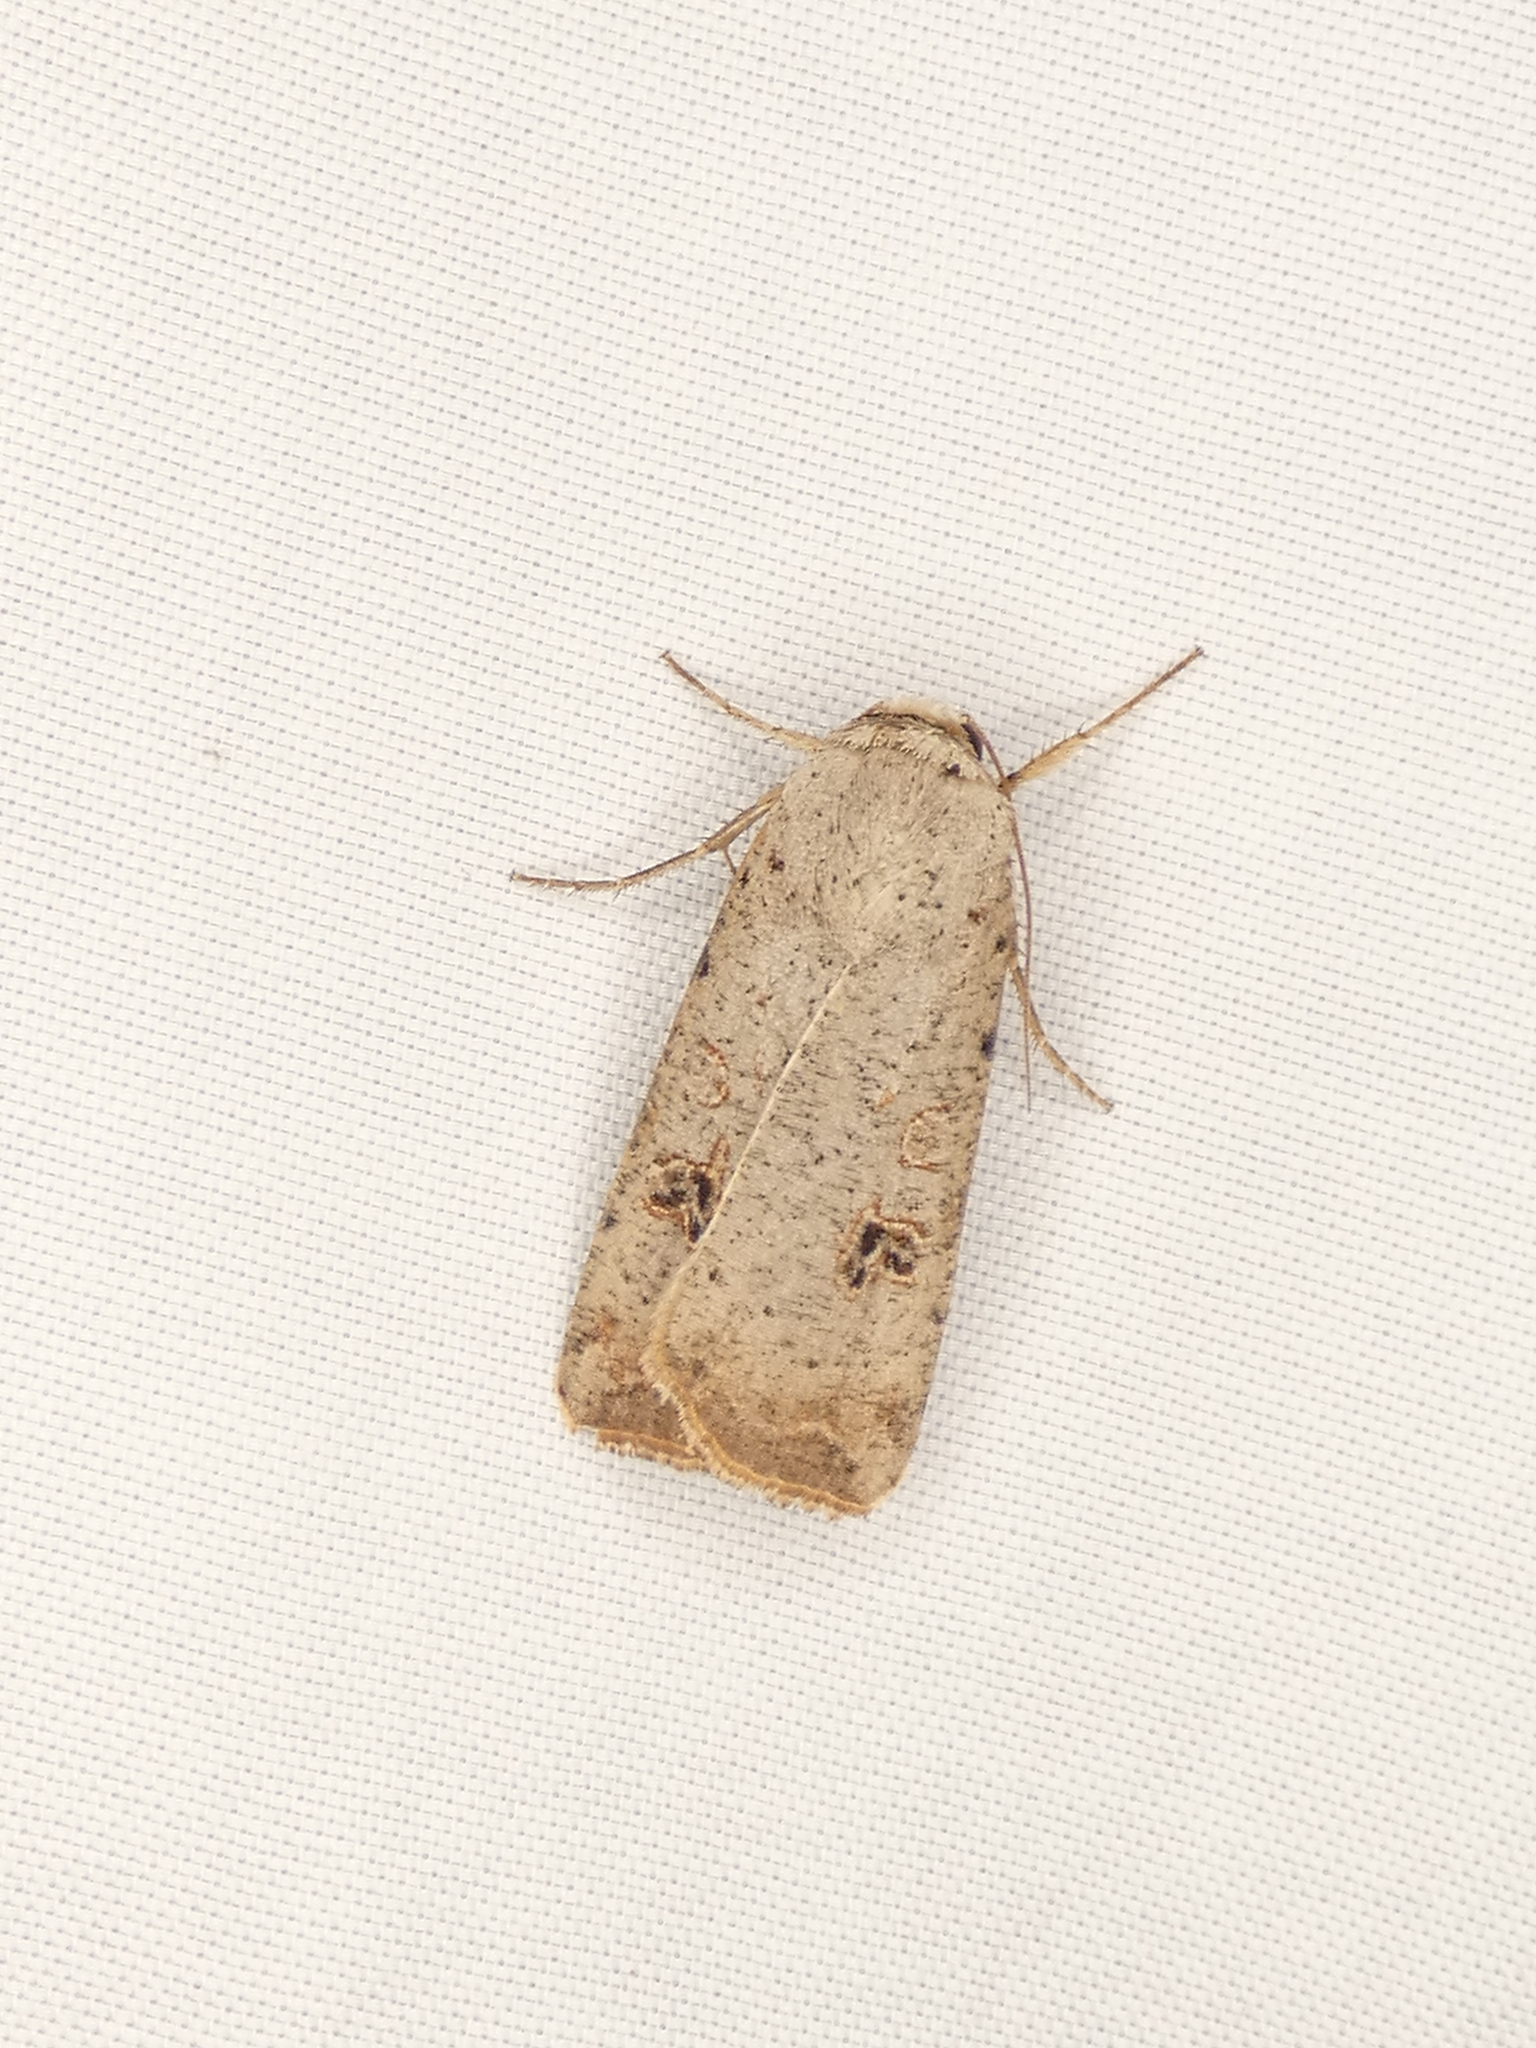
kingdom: Animalia
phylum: Arthropoda
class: Insecta
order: Lepidoptera
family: Noctuidae
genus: Anicla
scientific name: Anicla infecta
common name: Green cutworm
